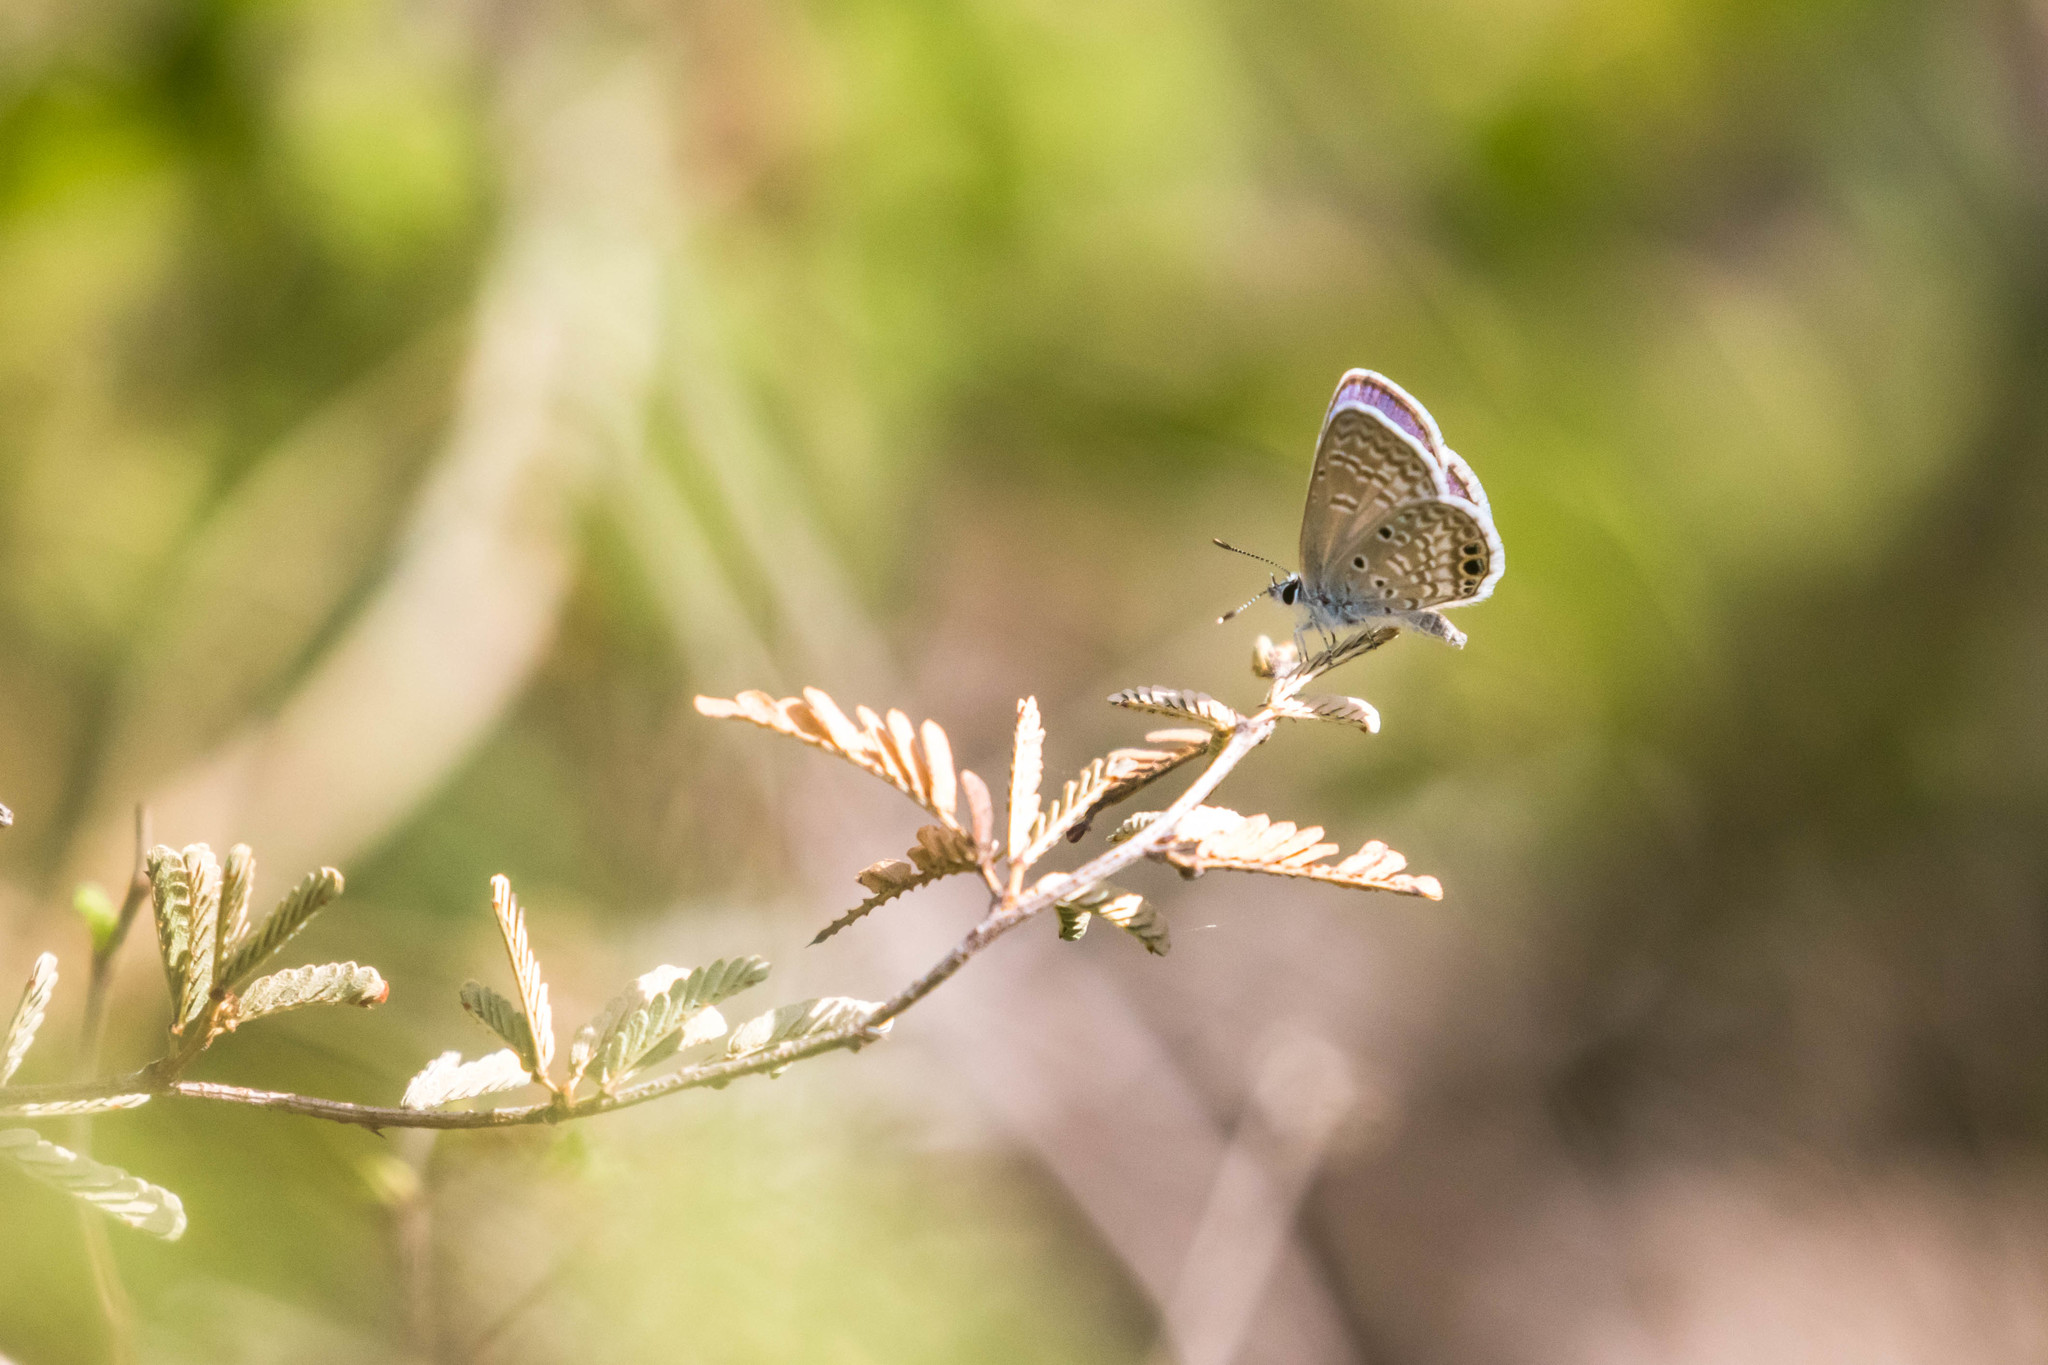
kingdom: Animalia
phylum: Arthropoda
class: Insecta
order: Lepidoptera
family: Lycaenidae
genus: Hemiargus
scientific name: Hemiargus ceraunus
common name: Ceraunus blue
